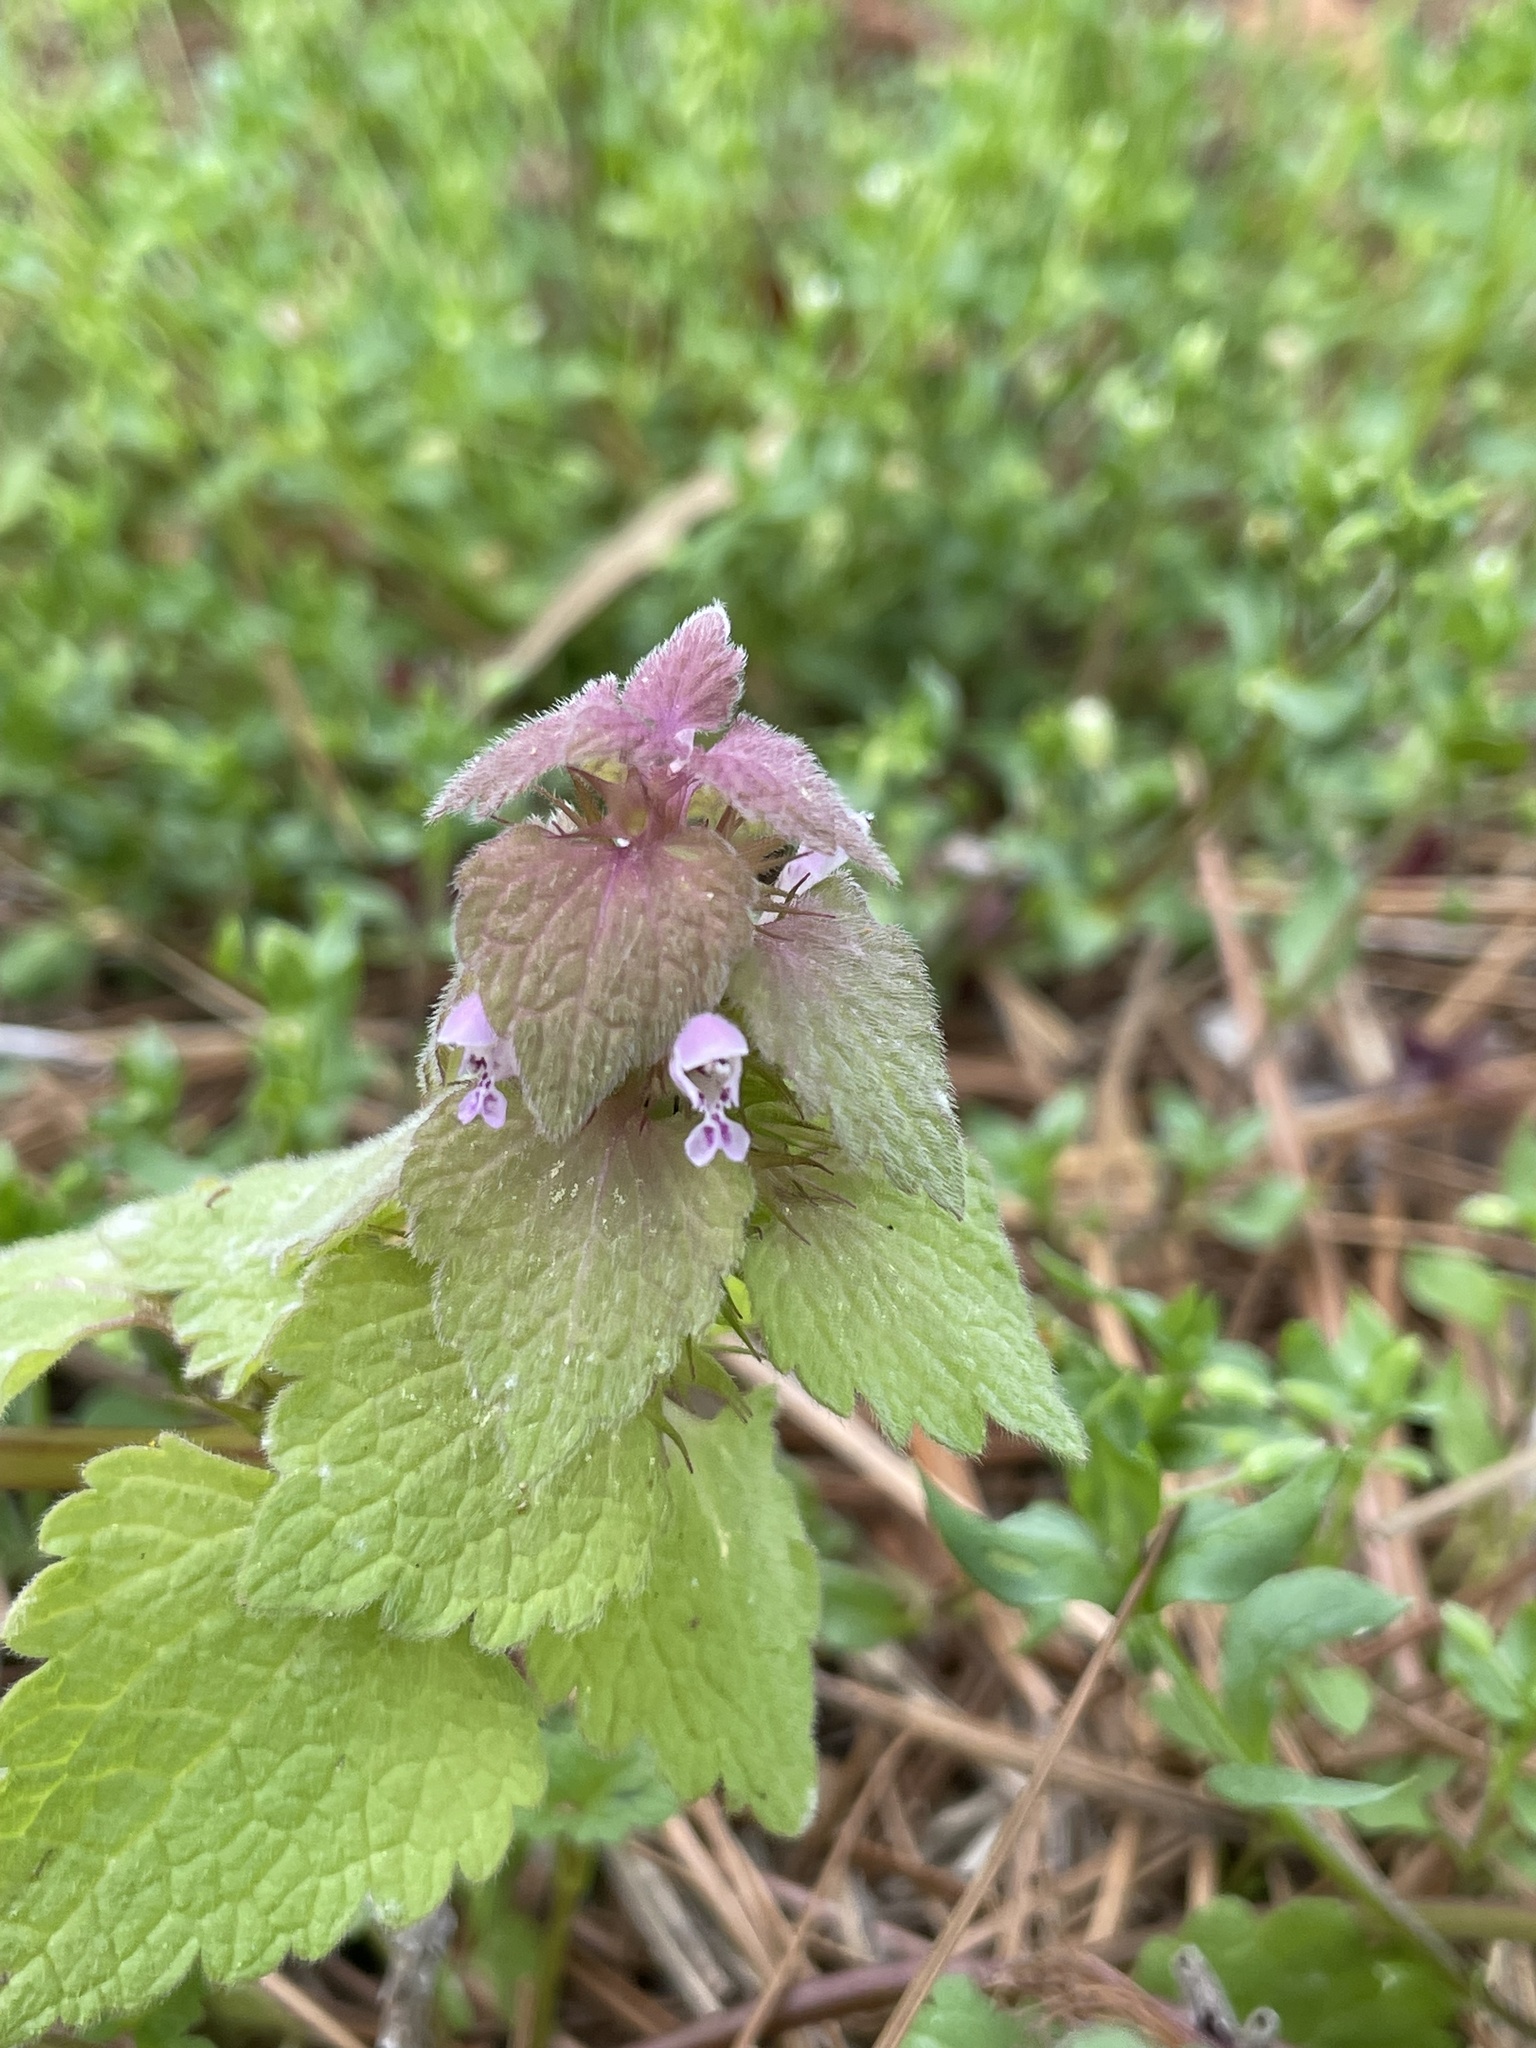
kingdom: Plantae
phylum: Tracheophyta
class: Magnoliopsida
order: Lamiales
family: Lamiaceae
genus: Lamium
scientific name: Lamium purpureum
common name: Red dead-nettle
